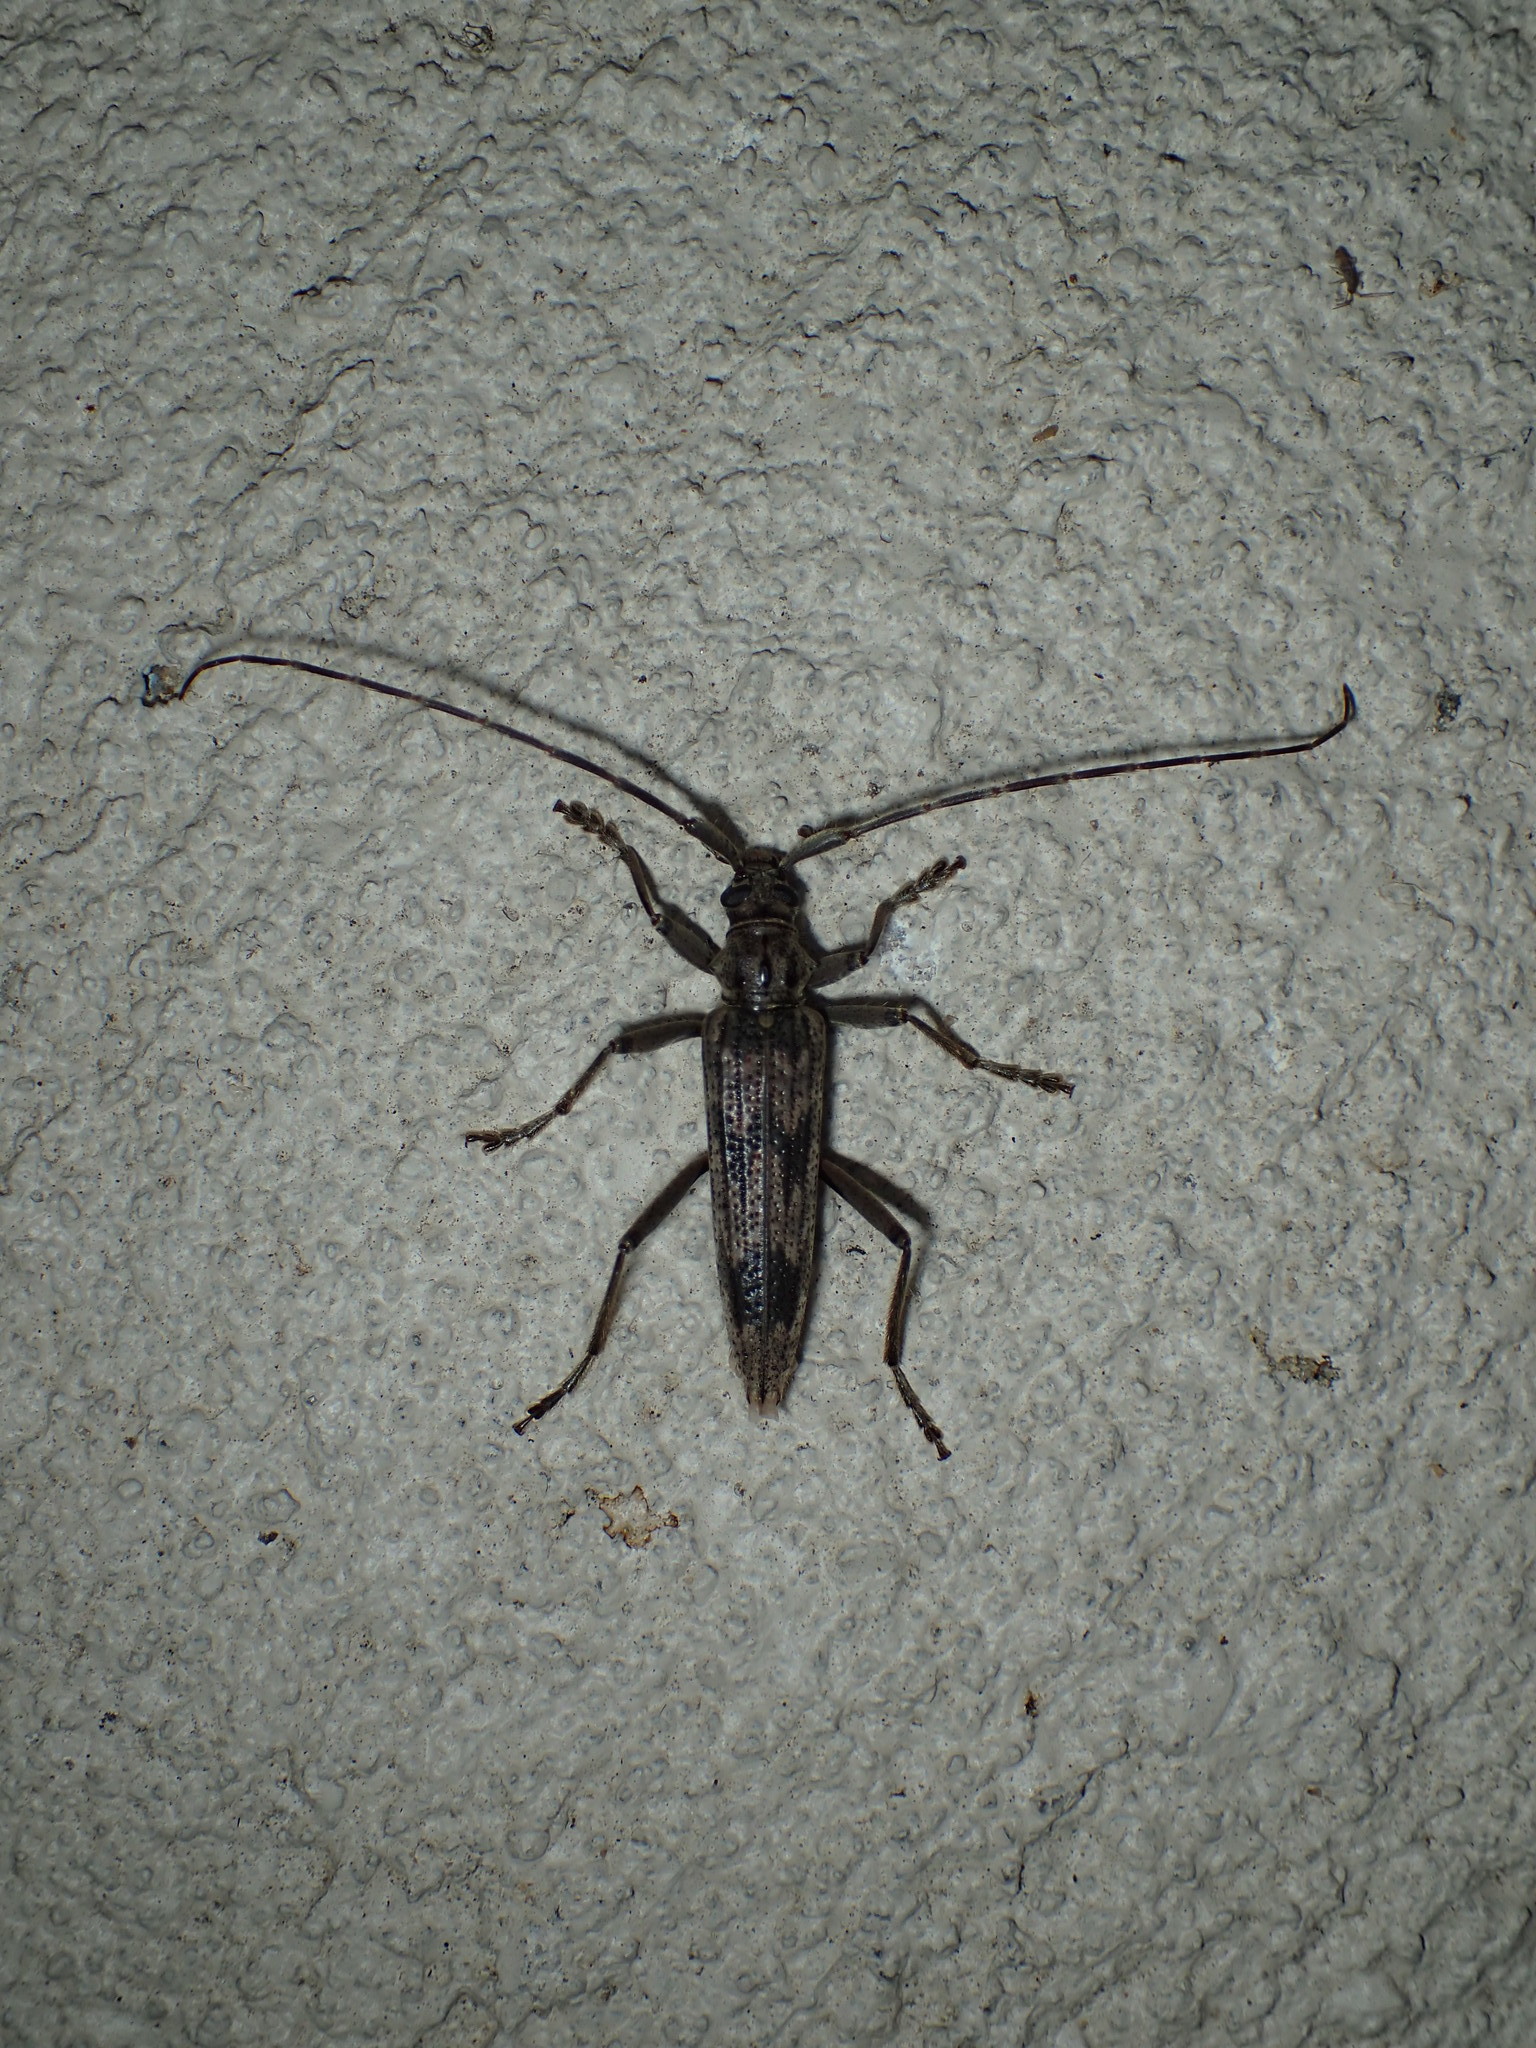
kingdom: Animalia
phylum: Arthropoda
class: Insecta
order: Coleoptera
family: Cerambycidae
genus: Elytrimitatrix
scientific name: Elytrimitatrix undata
